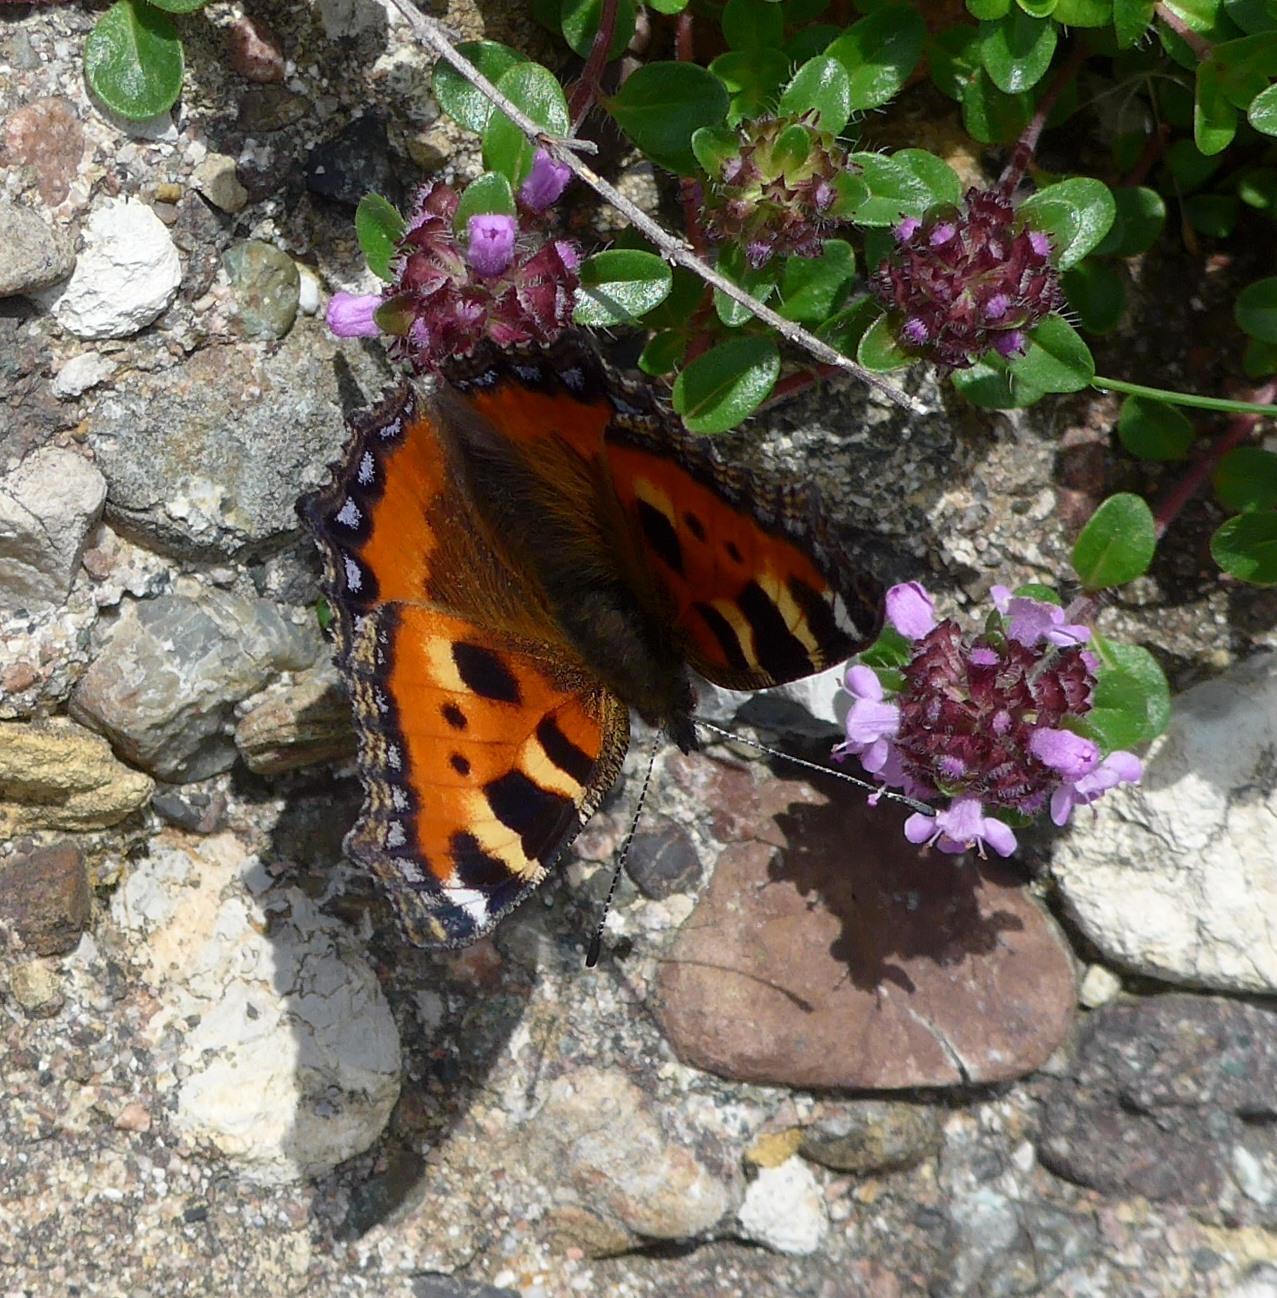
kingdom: Animalia
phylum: Arthropoda
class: Insecta
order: Lepidoptera
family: Nymphalidae
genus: Aglais
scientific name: Aglais urticae
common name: Small tortoiseshell
